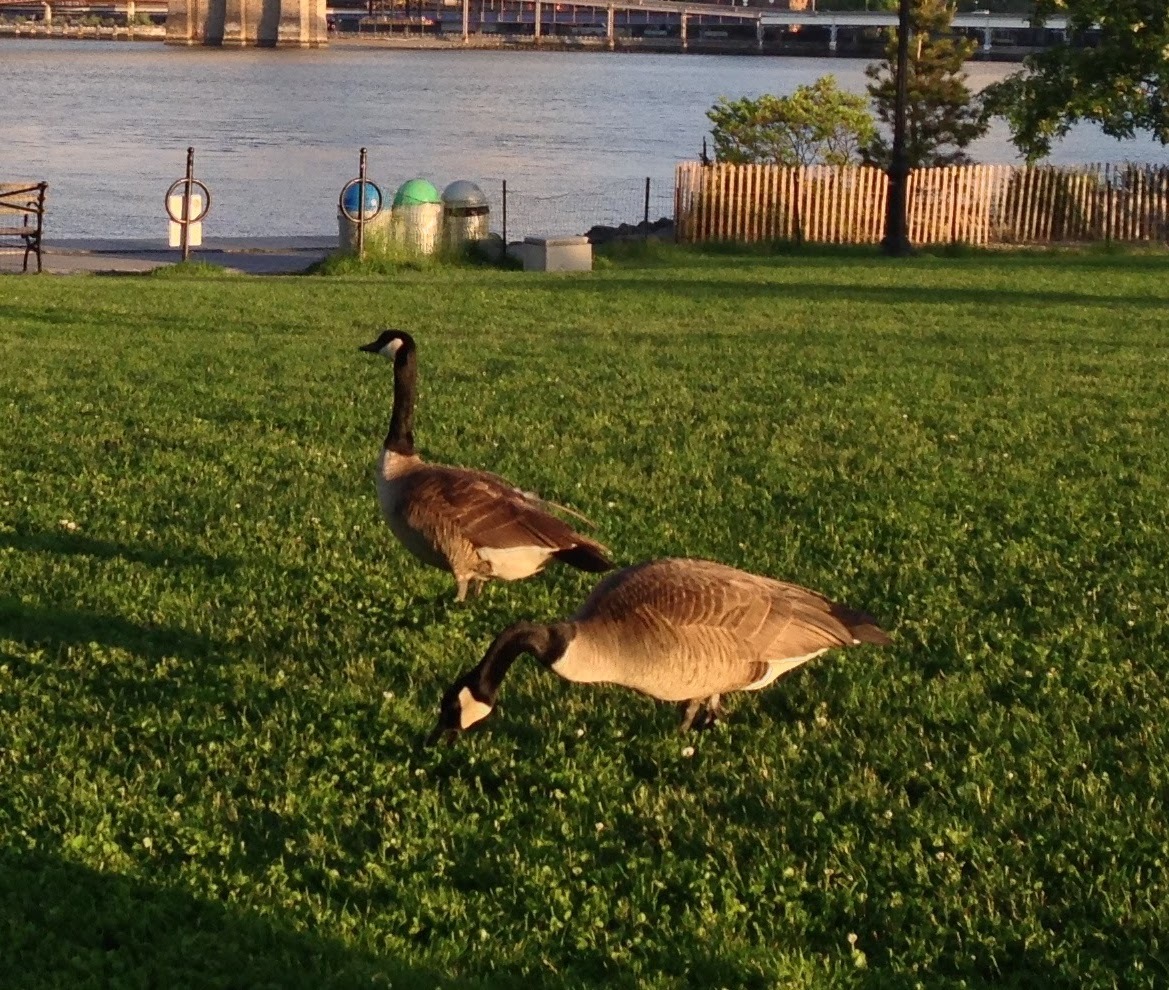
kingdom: Animalia
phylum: Chordata
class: Aves
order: Anseriformes
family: Anatidae
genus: Branta
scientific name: Branta canadensis
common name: Canada goose
